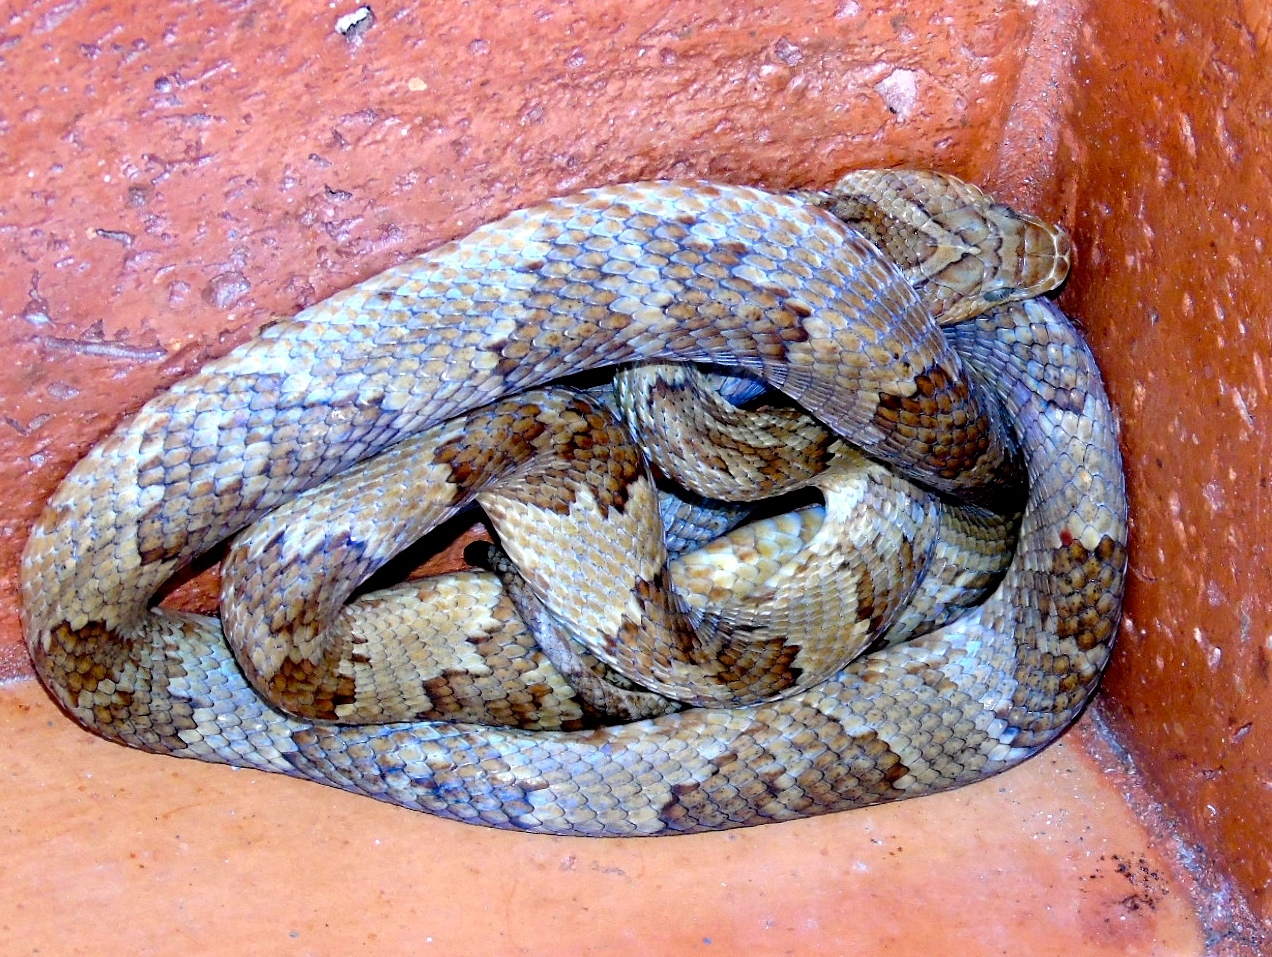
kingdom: Animalia
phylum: Chordata
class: Squamata
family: Colubridae
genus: Trimorphodon
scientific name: Trimorphodon paucimaculatus
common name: Sinaloan lyresnake
